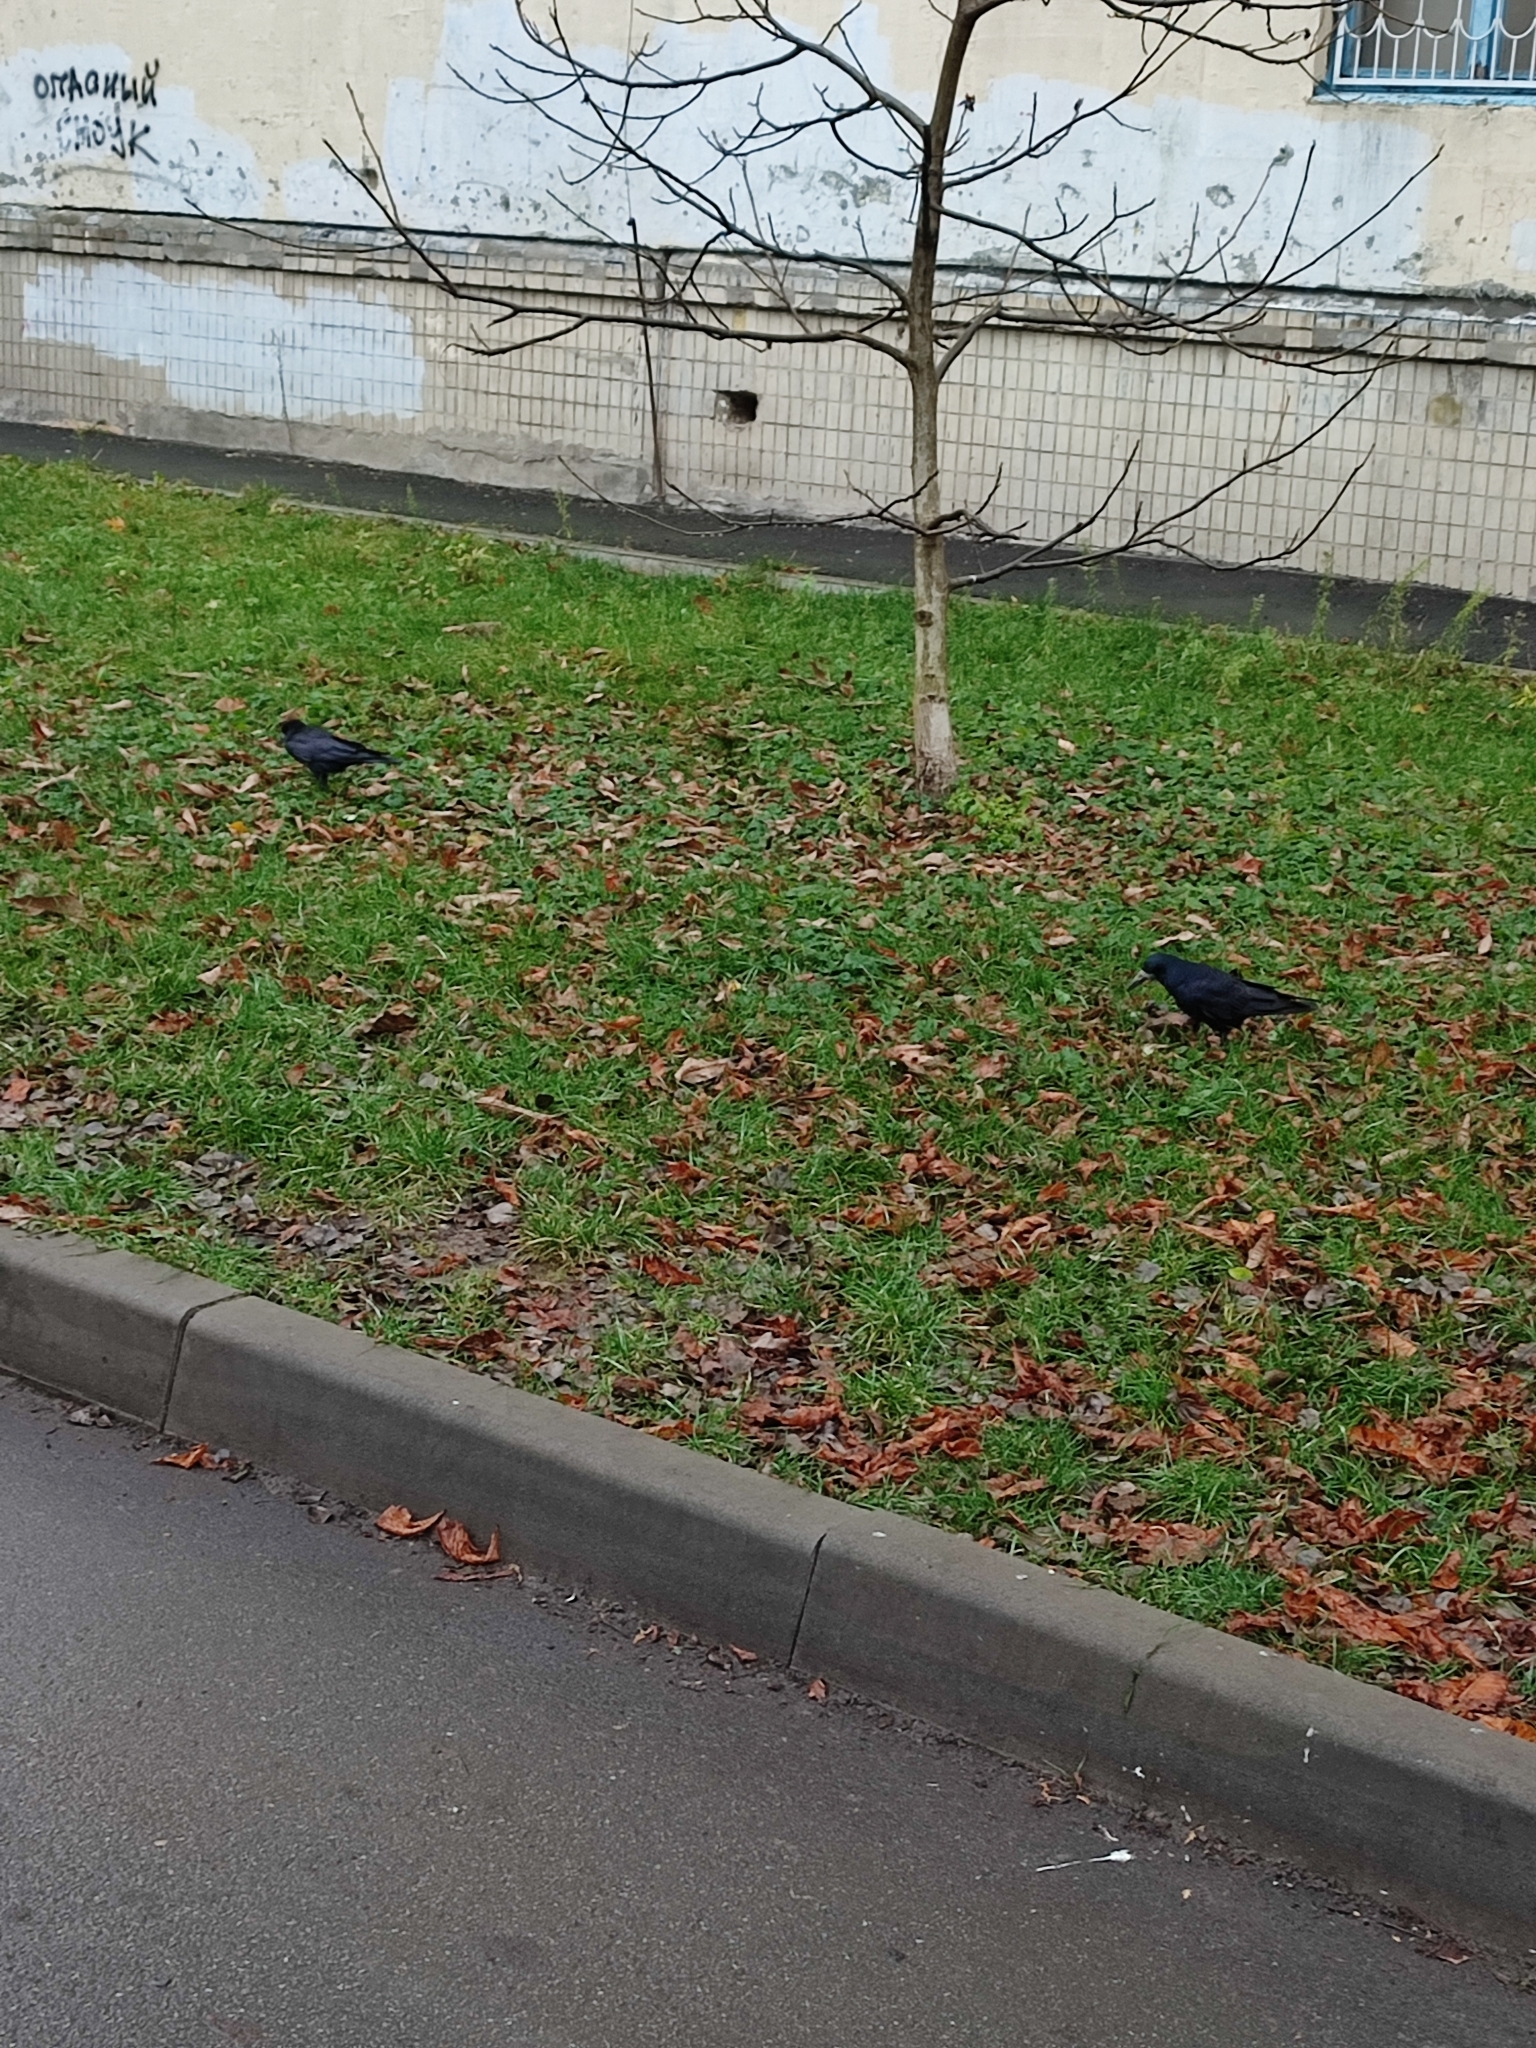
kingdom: Animalia
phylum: Chordata
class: Aves
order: Passeriformes
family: Corvidae
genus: Corvus
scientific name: Corvus frugilegus
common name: Rook
